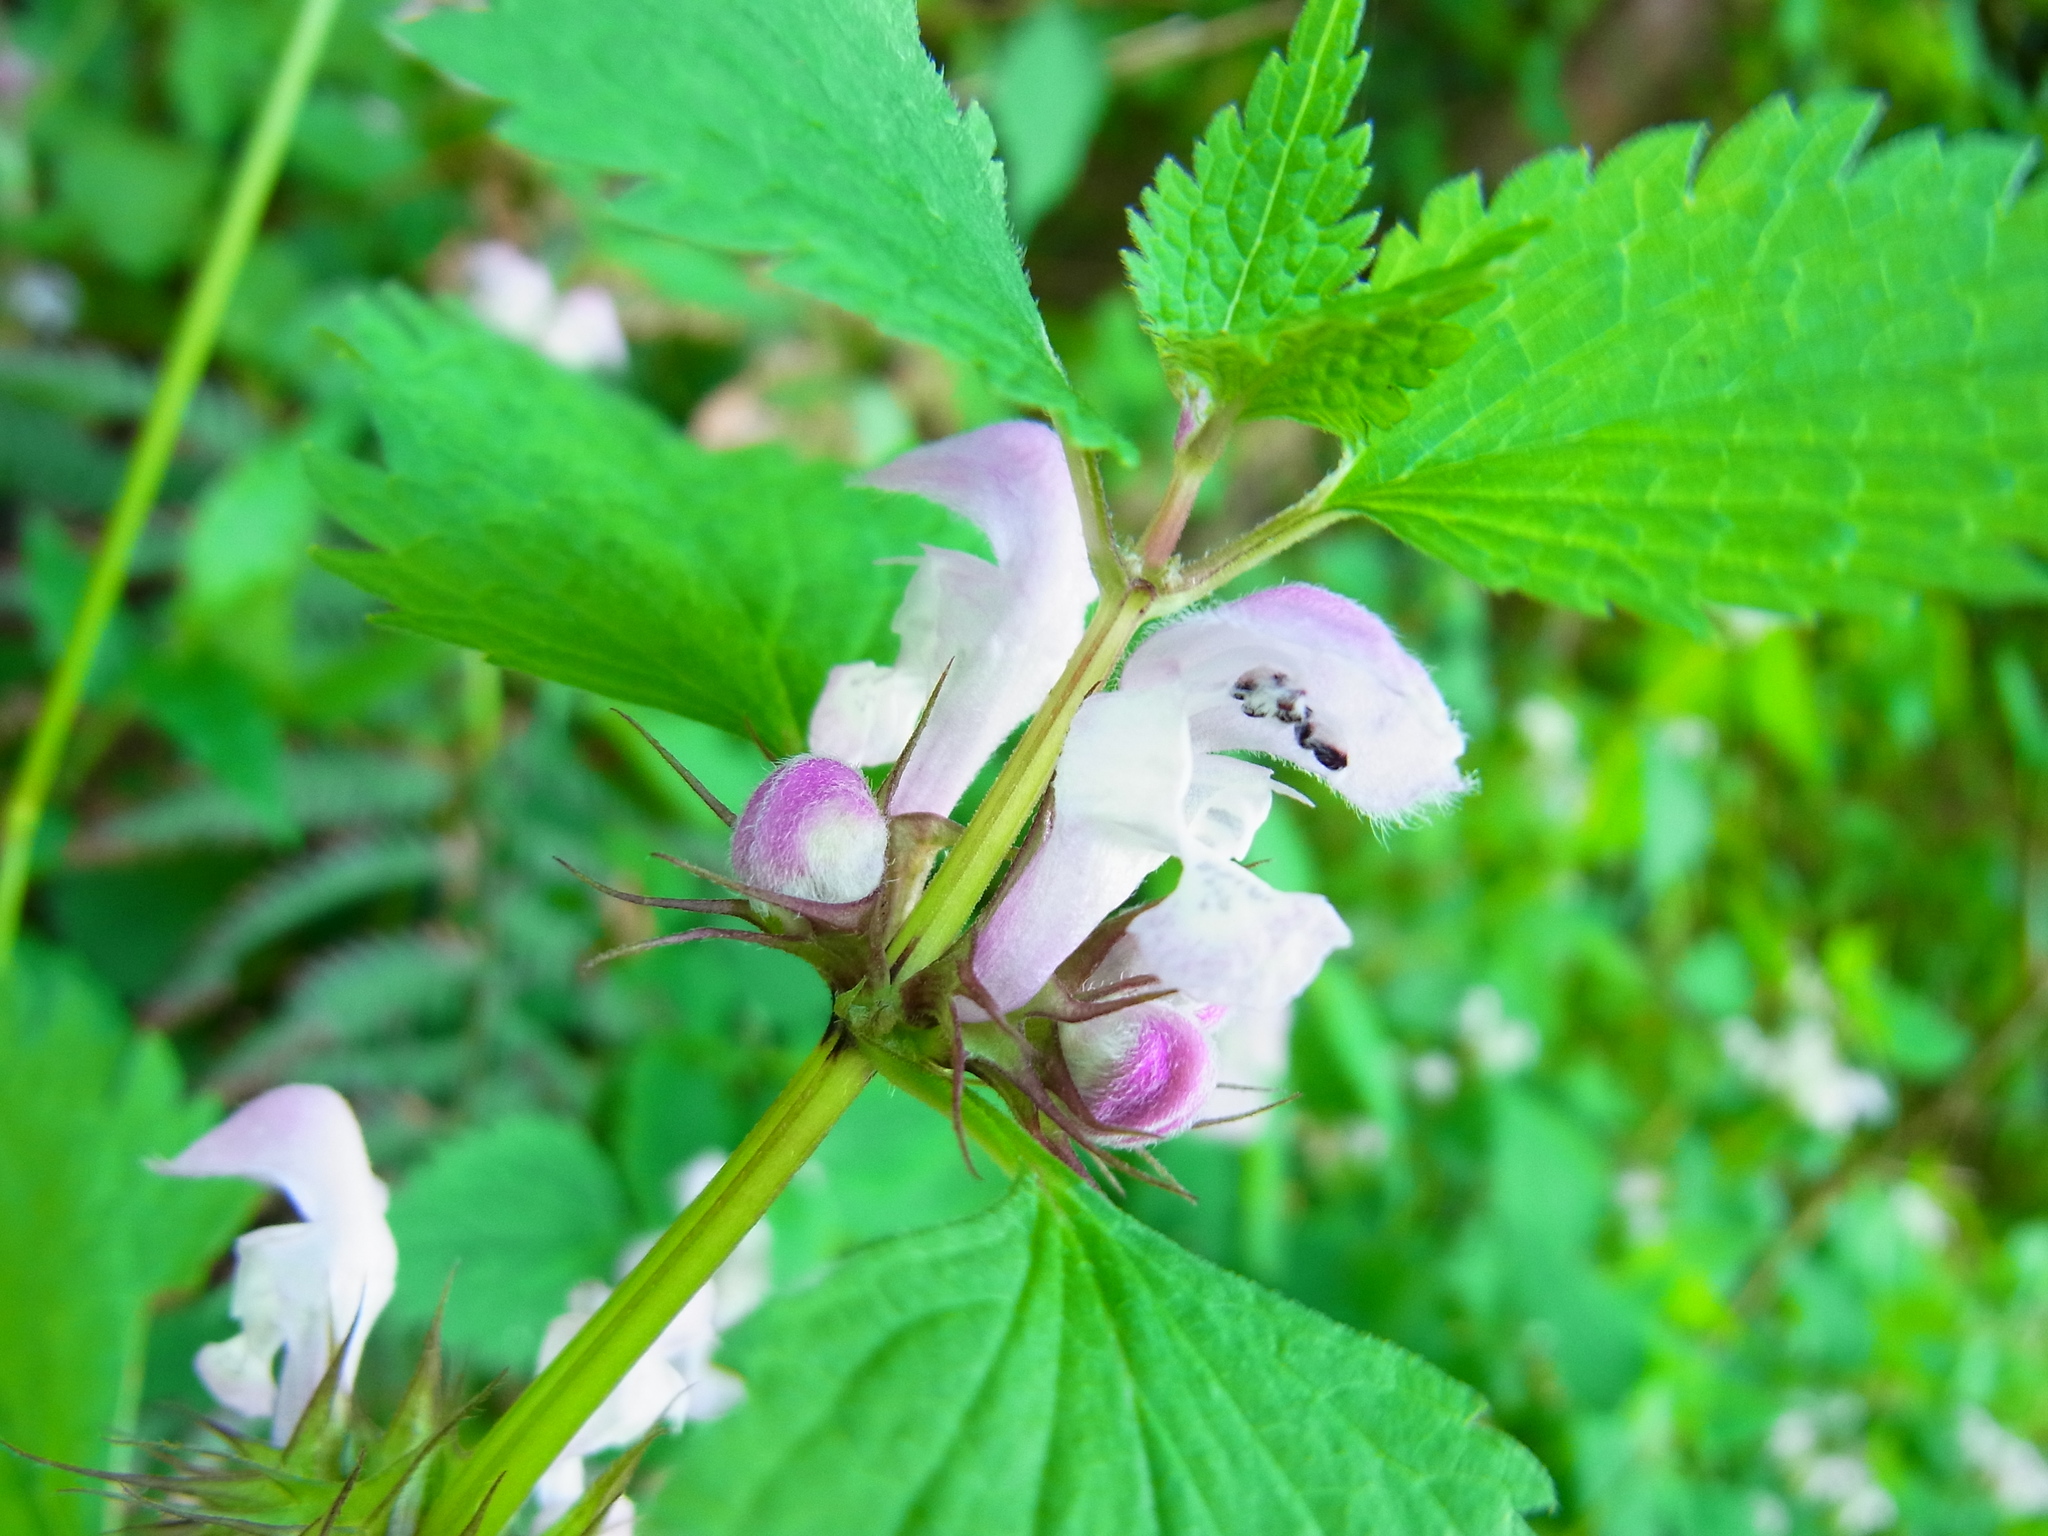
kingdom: Plantae
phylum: Tracheophyta
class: Magnoliopsida
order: Lamiales
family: Lamiaceae
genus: Lamium
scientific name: Lamium album
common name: White dead-nettle
